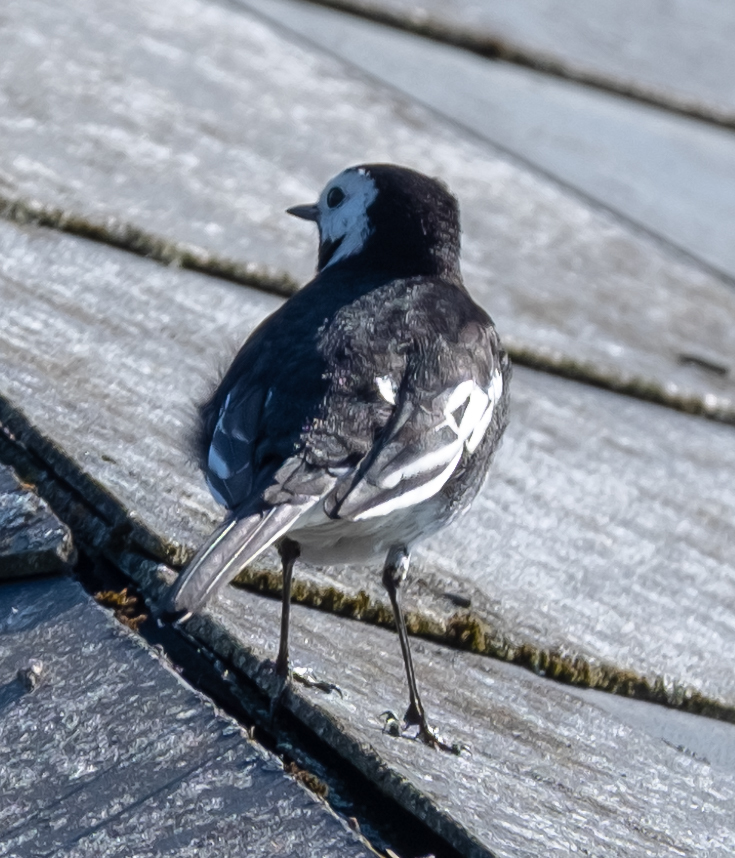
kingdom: Animalia
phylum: Chordata
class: Aves
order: Passeriformes
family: Motacillidae
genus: Motacilla
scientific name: Motacilla alba
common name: White wagtail
